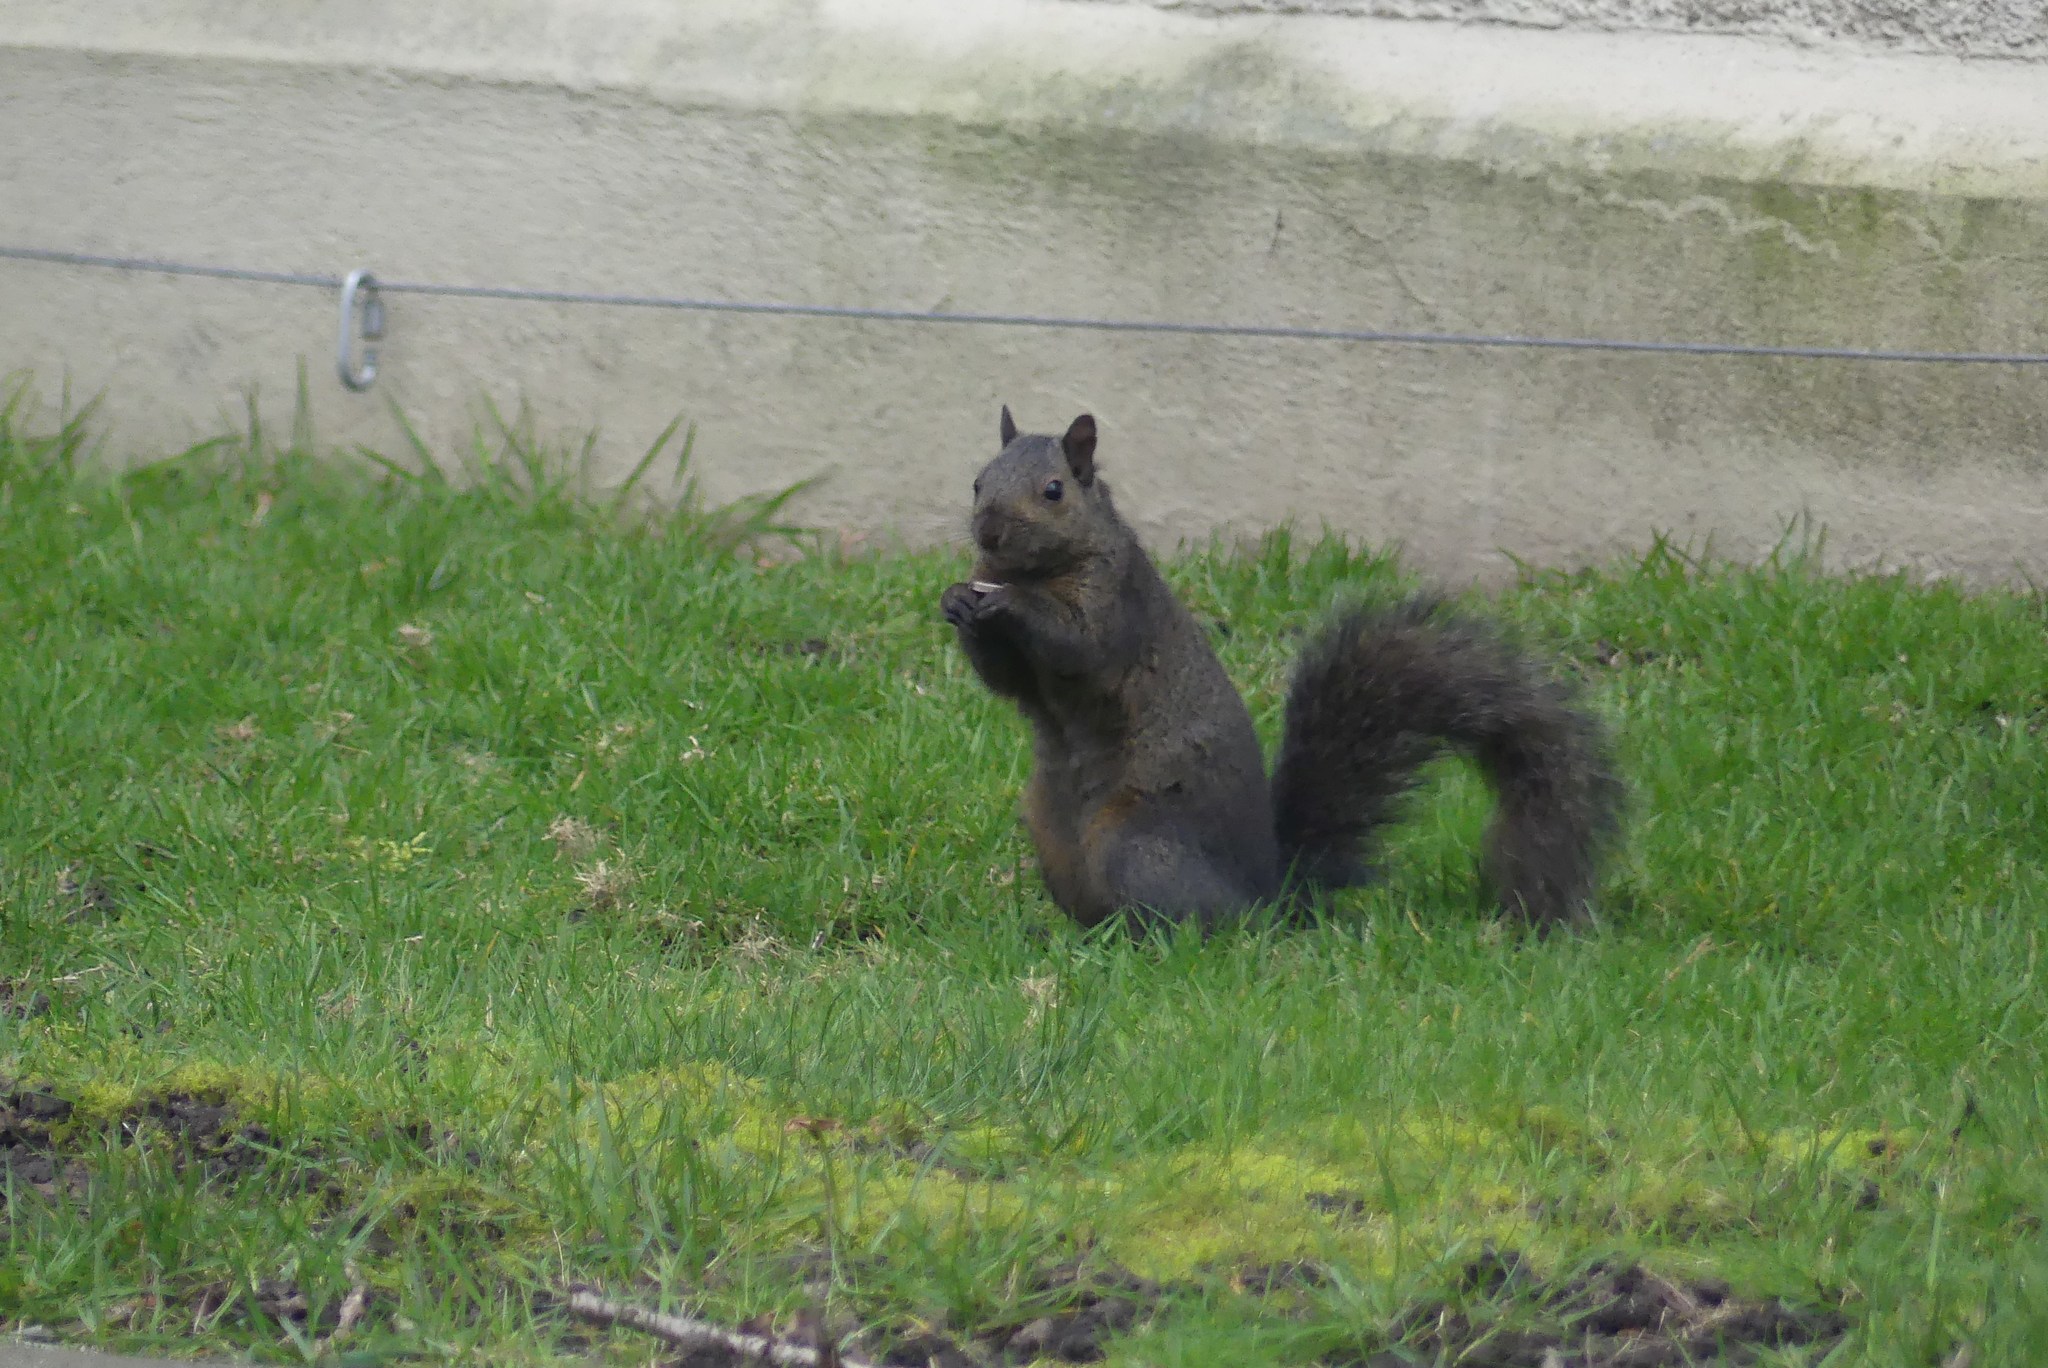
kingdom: Animalia
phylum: Chordata
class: Mammalia
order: Rodentia
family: Sciuridae
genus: Sciurus
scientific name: Sciurus carolinensis
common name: Eastern gray squirrel
